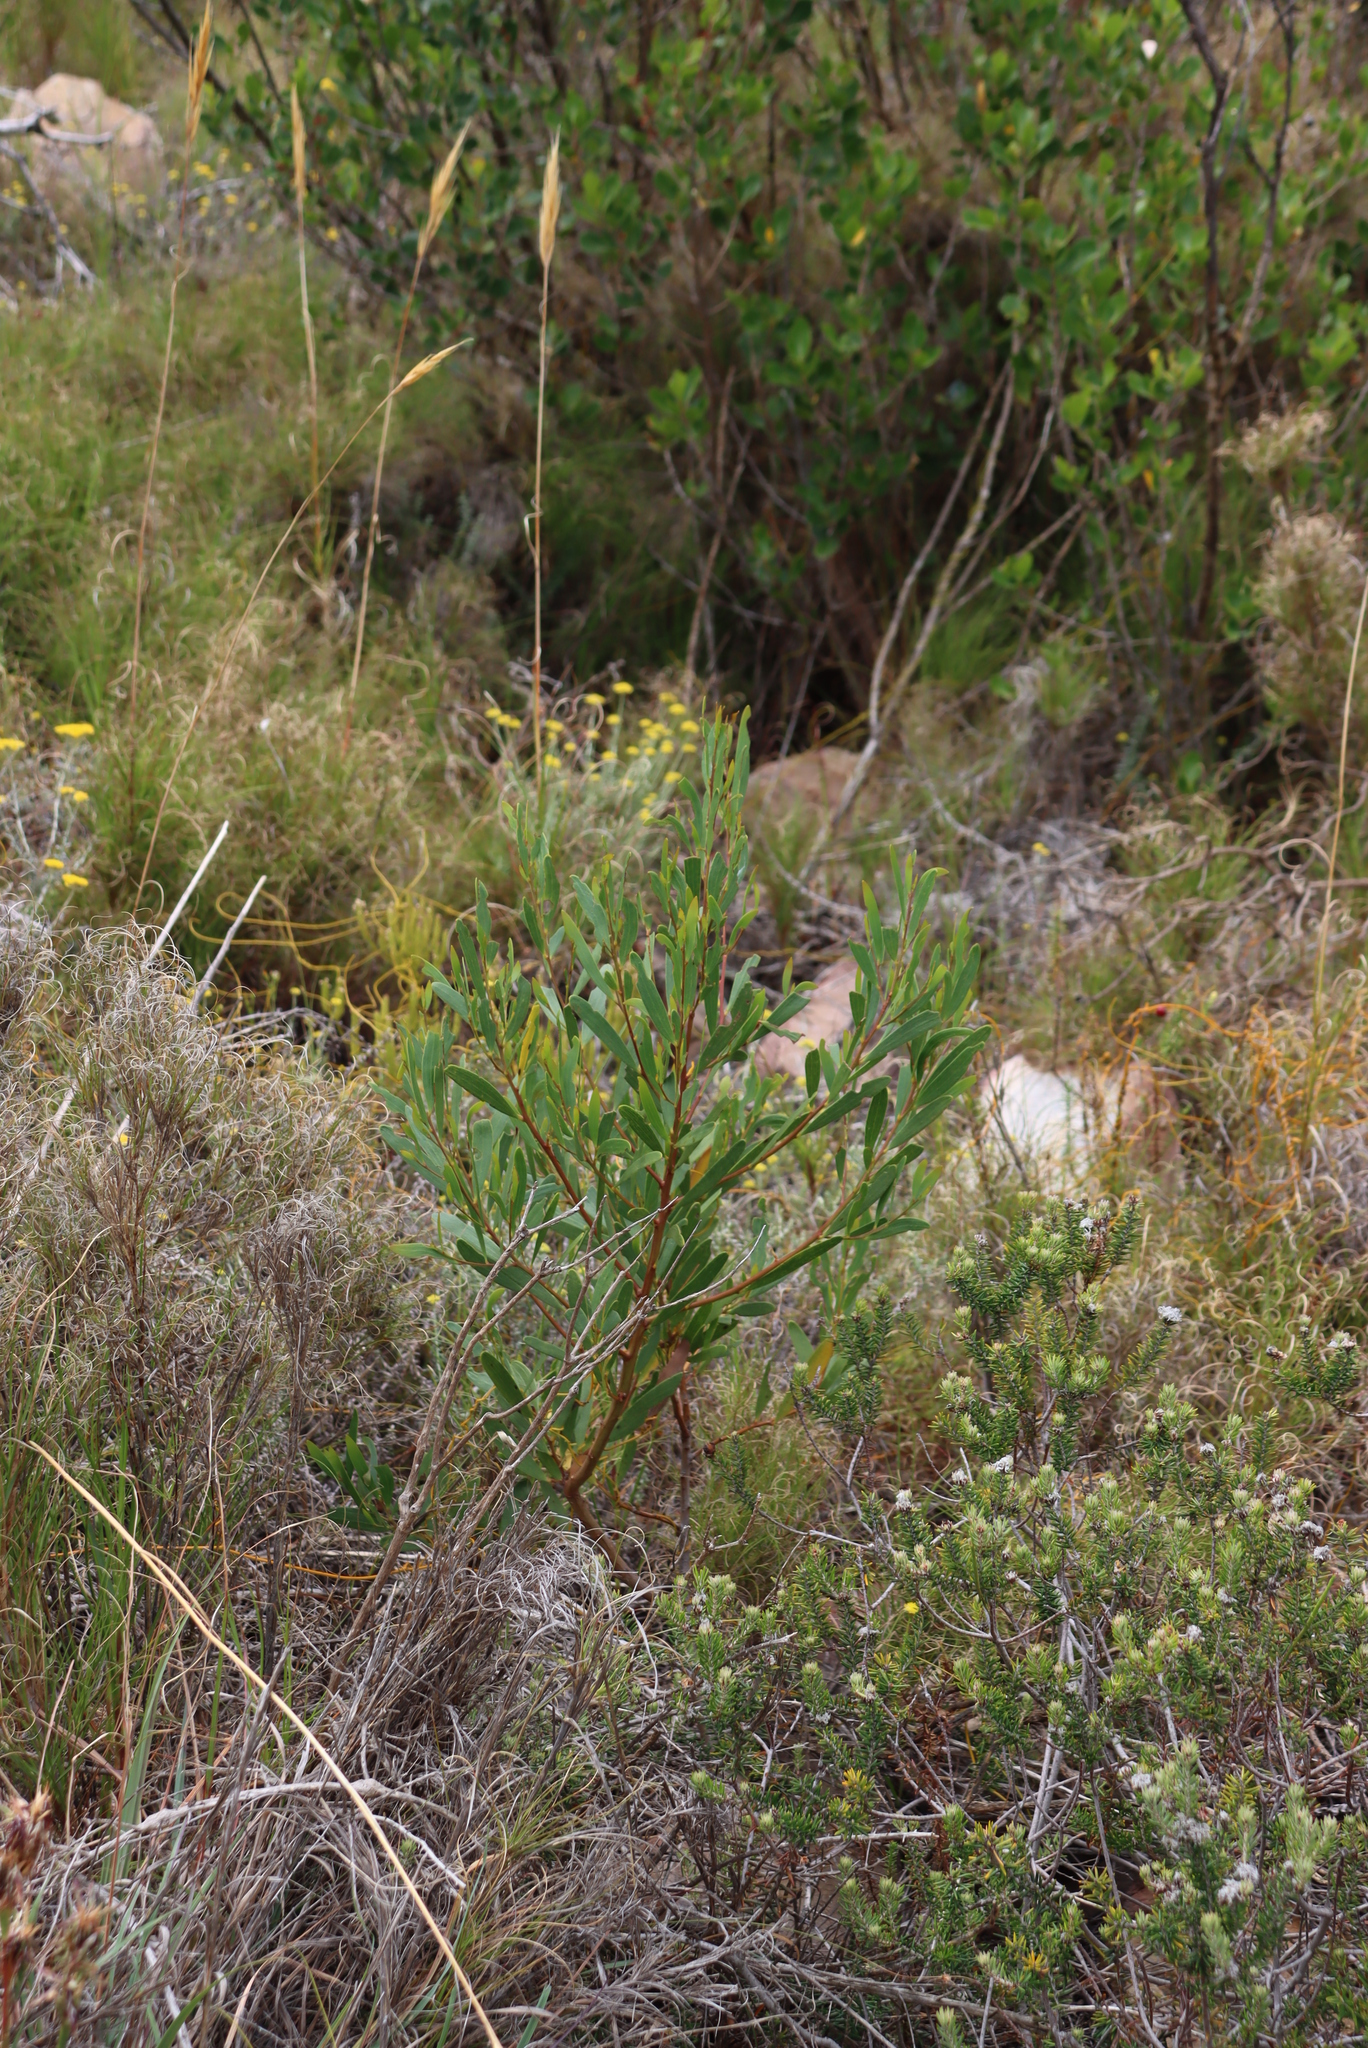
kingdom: Plantae
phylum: Tracheophyta
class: Magnoliopsida
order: Fabales
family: Fabaceae
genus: Acacia
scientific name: Acacia cyclops
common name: Coastal wattle
